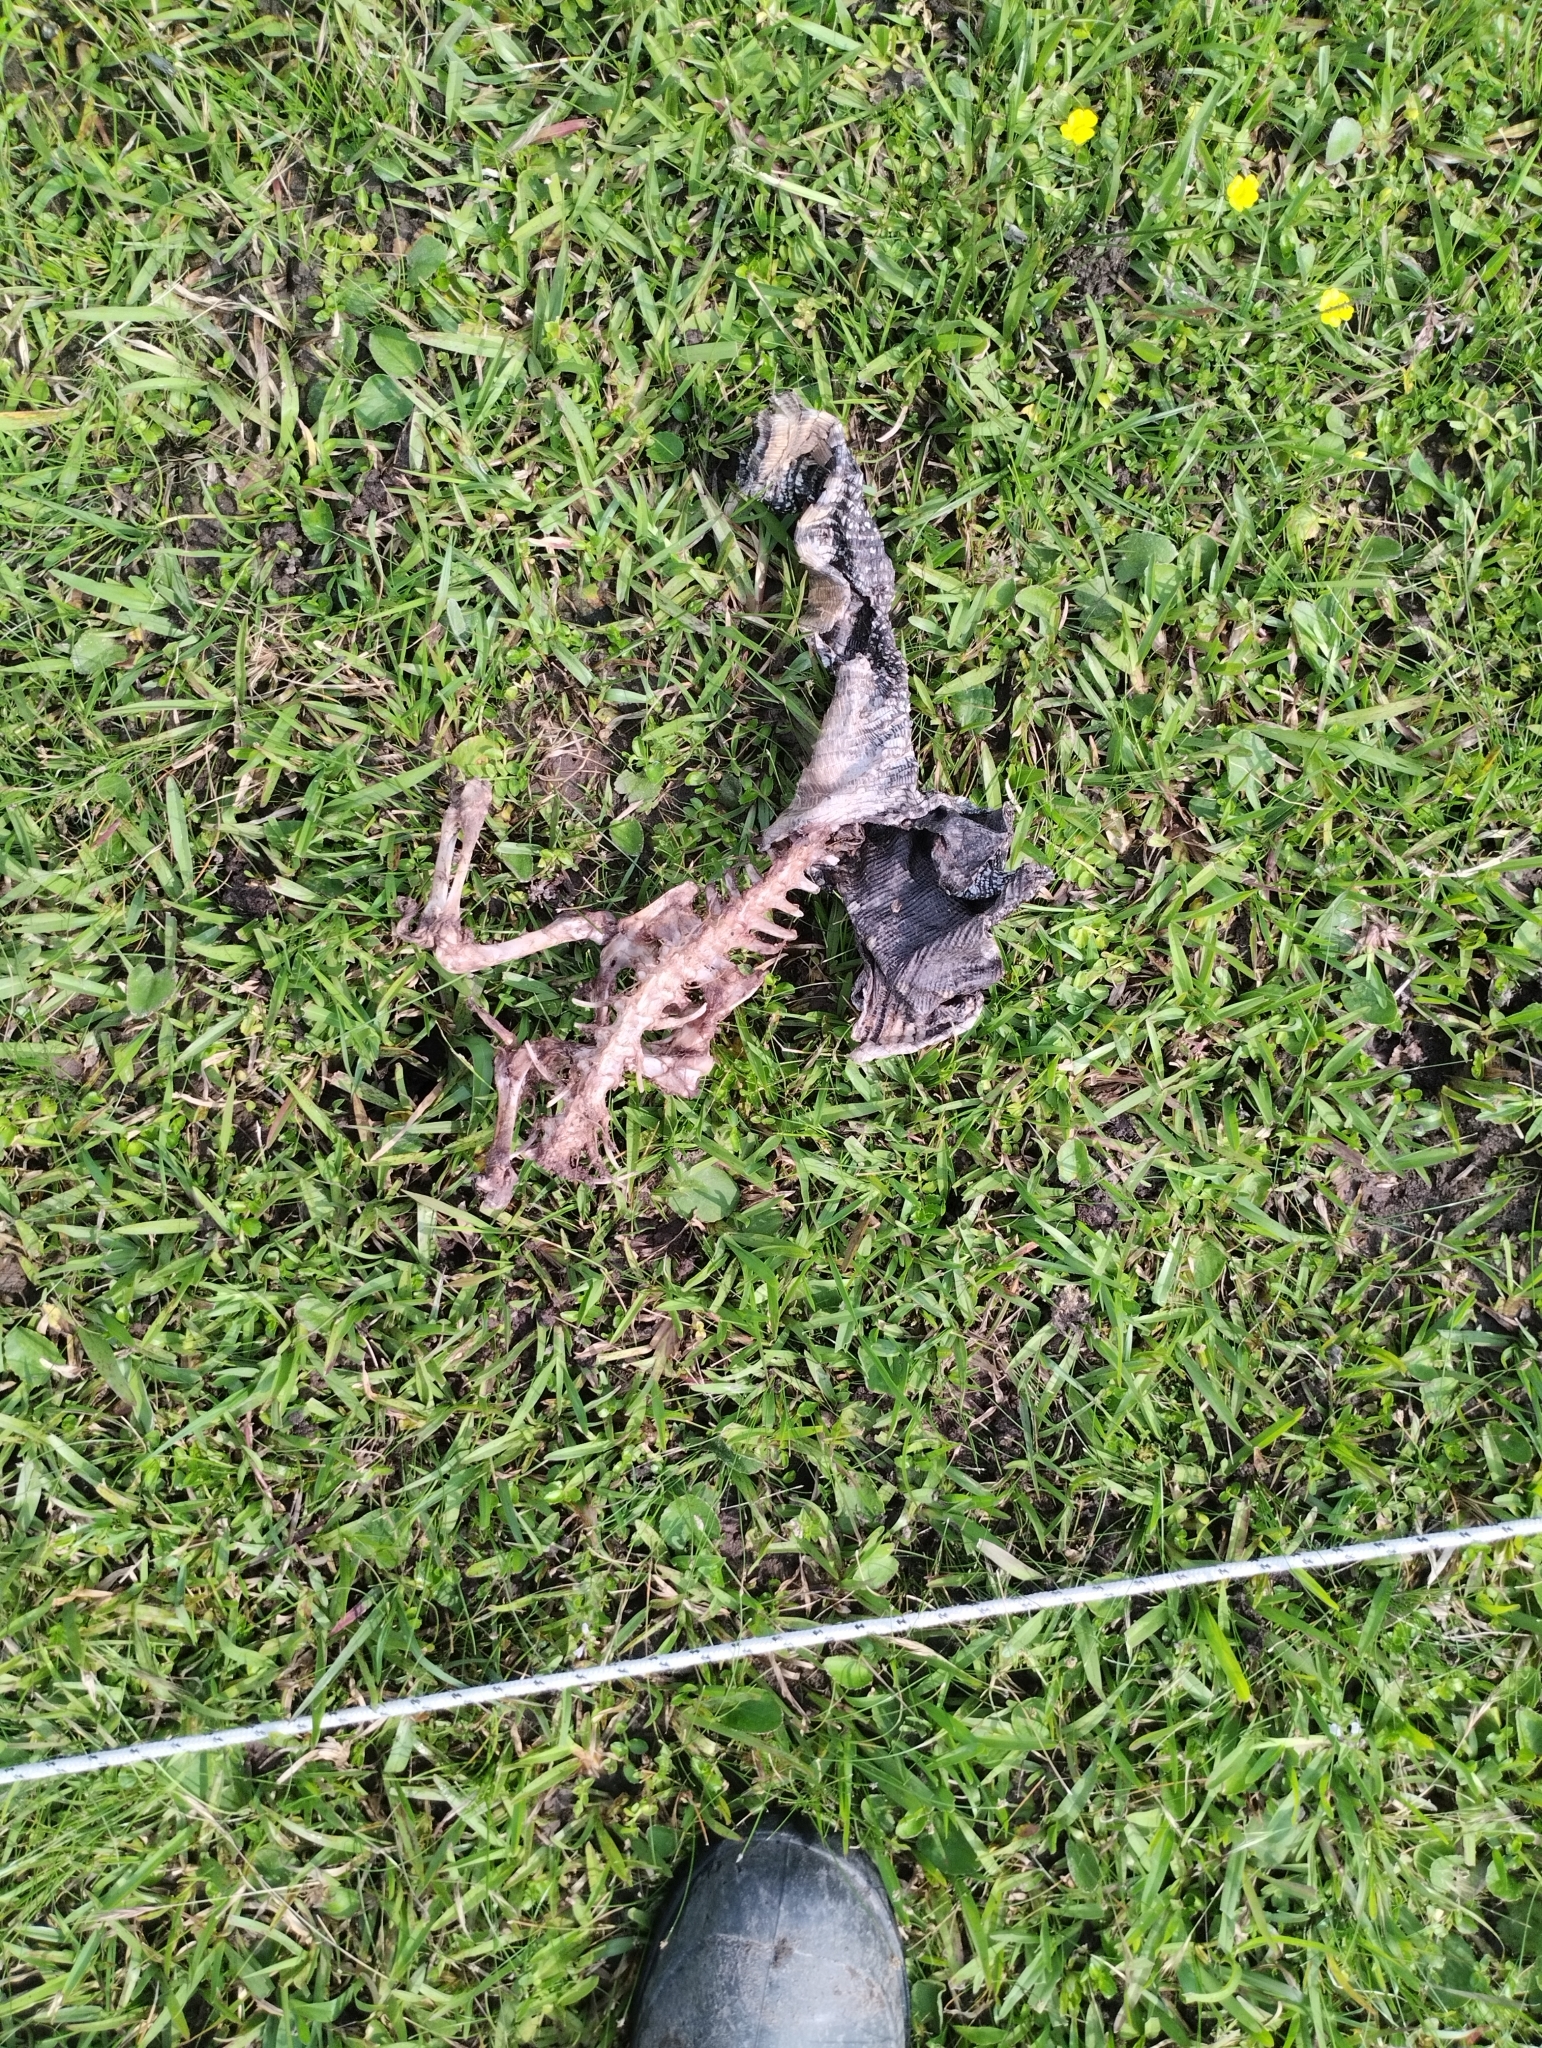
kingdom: Animalia
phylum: Chordata
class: Squamata
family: Teiidae
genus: Salvator
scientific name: Salvator merianae
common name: Argentine black and white tegu
